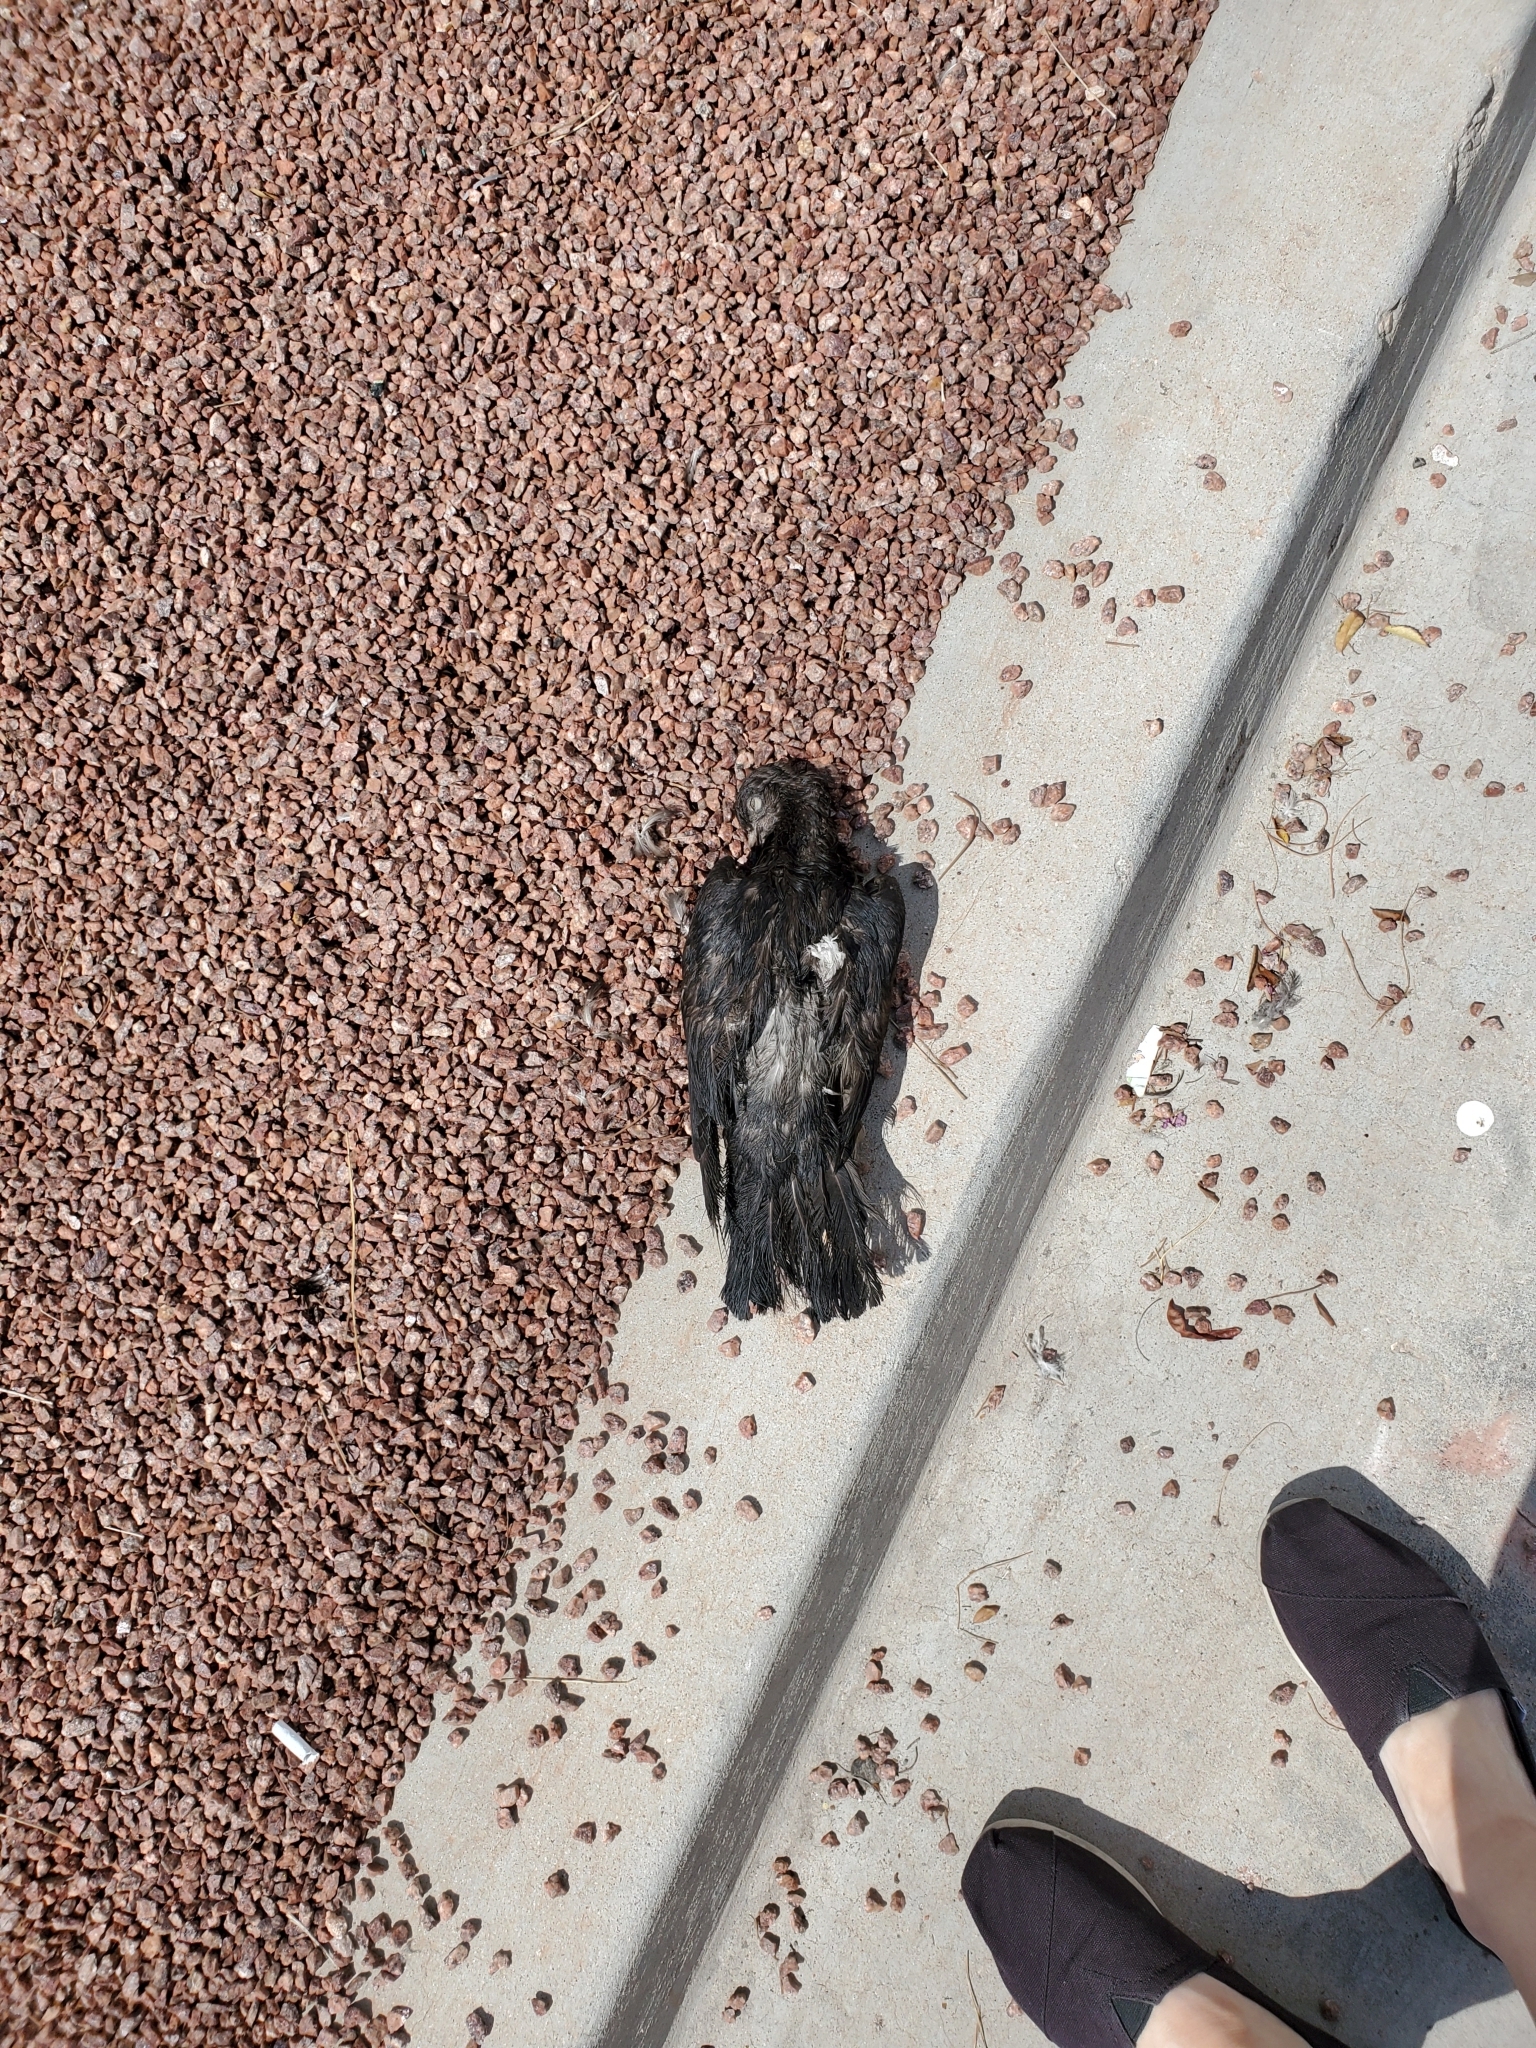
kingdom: Animalia
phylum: Chordata
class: Aves
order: Columbiformes
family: Columbidae
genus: Columba
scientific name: Columba livia
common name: Rock pigeon
